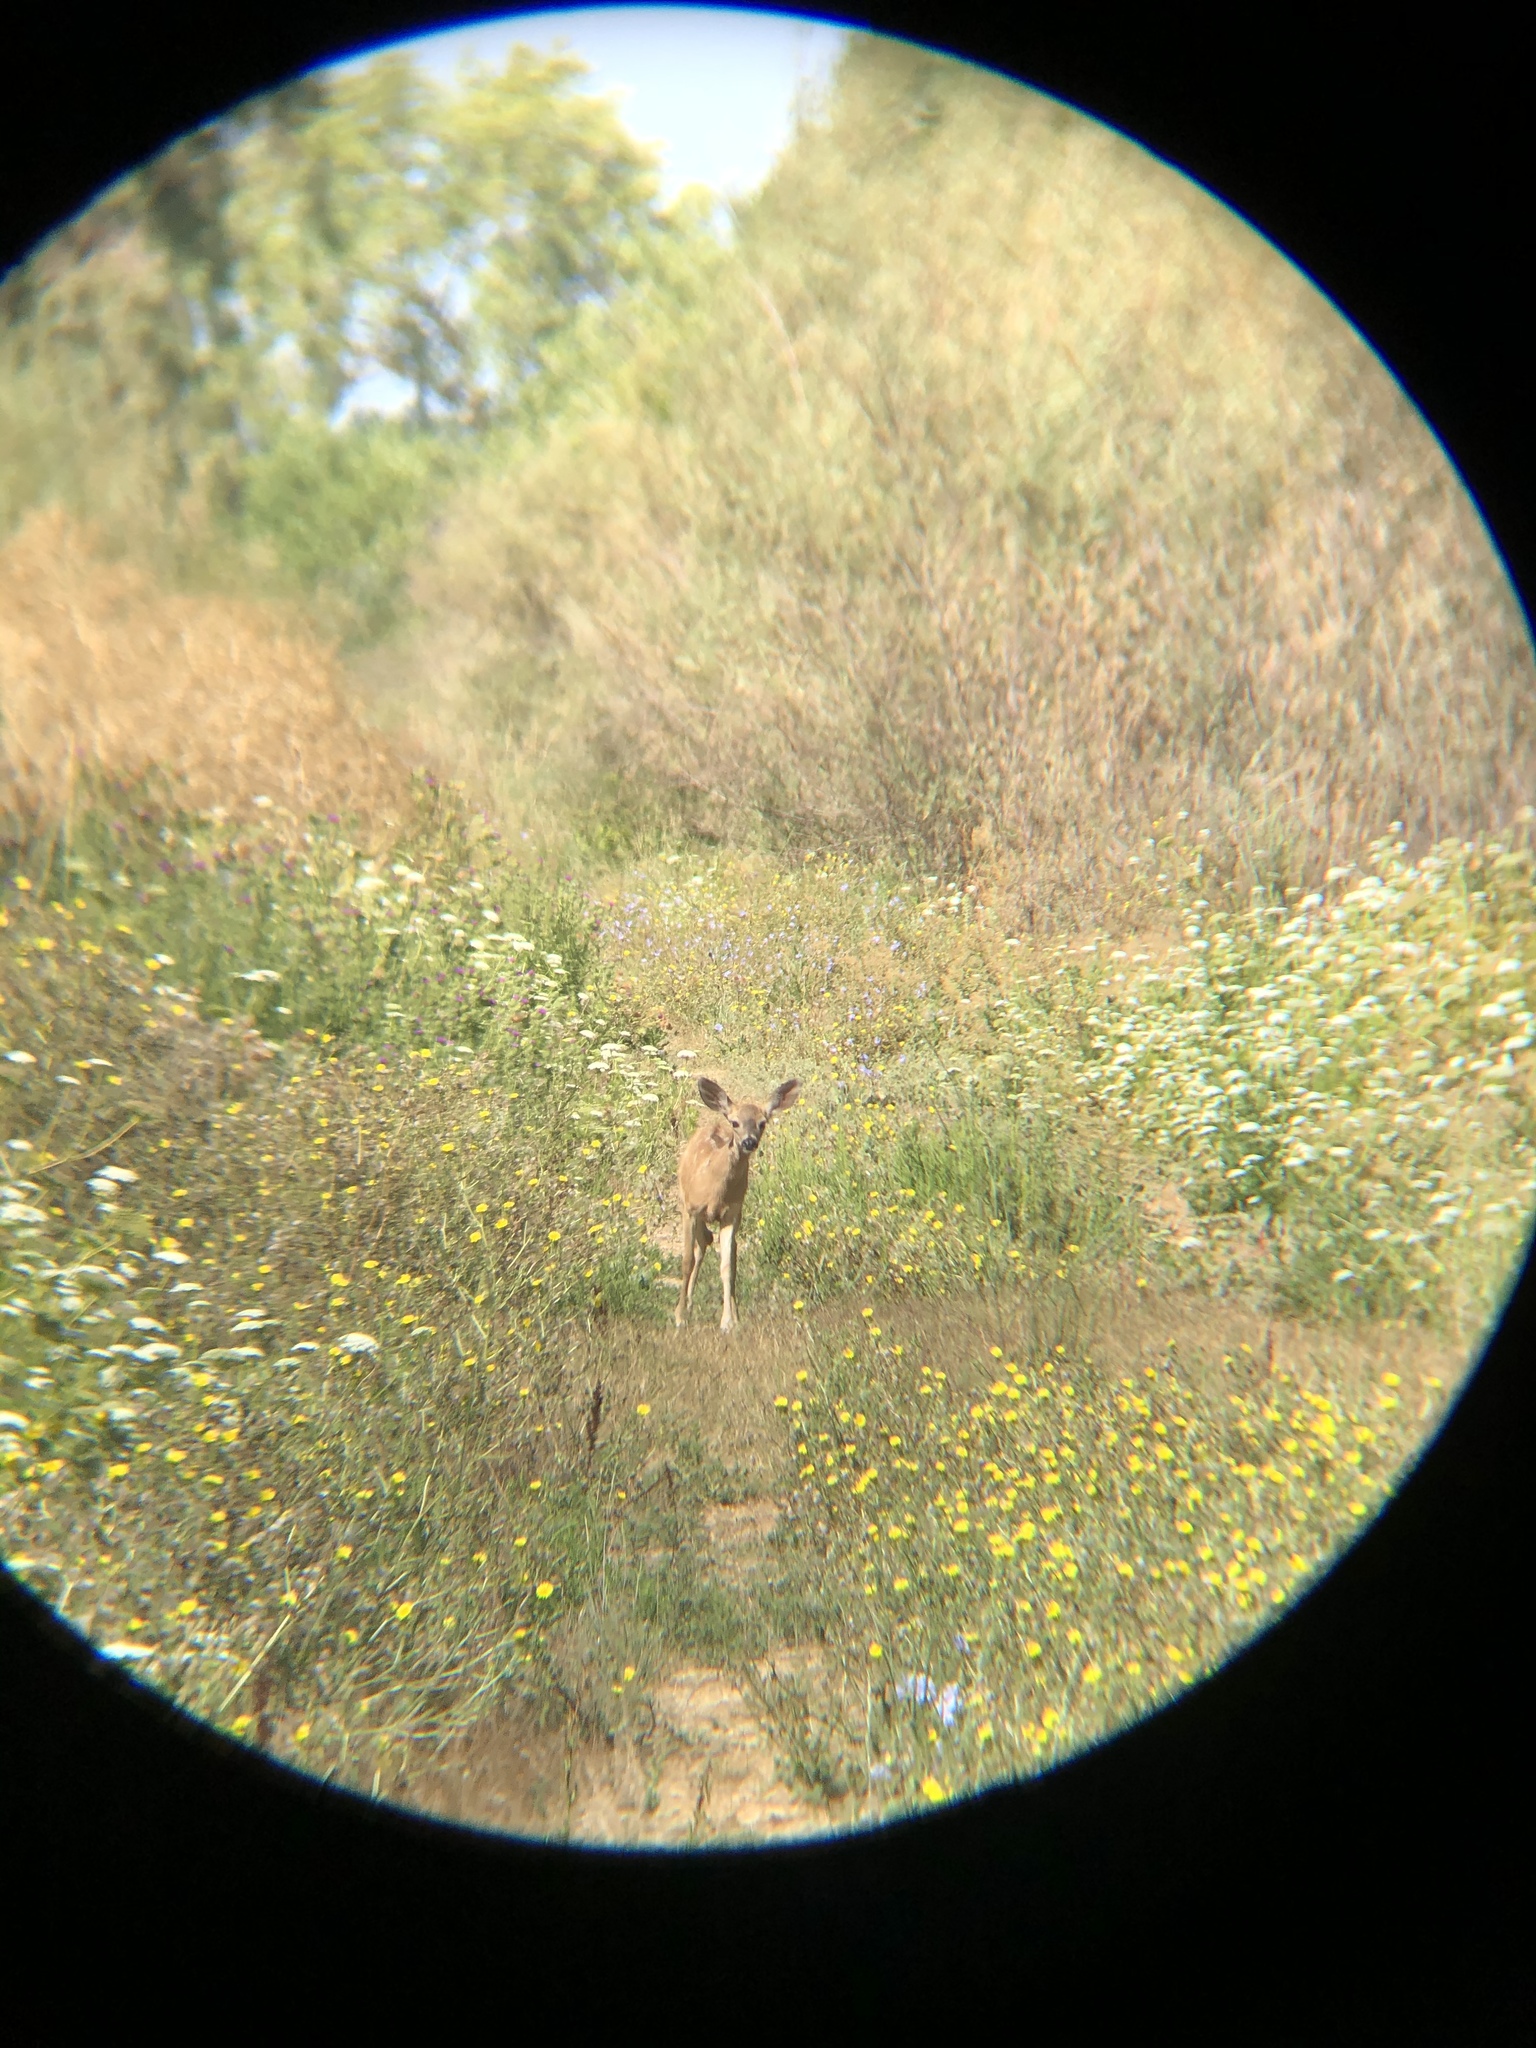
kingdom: Animalia
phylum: Chordata
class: Mammalia
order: Artiodactyla
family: Cervidae
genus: Odocoileus
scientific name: Odocoileus hemionus
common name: Mule deer
